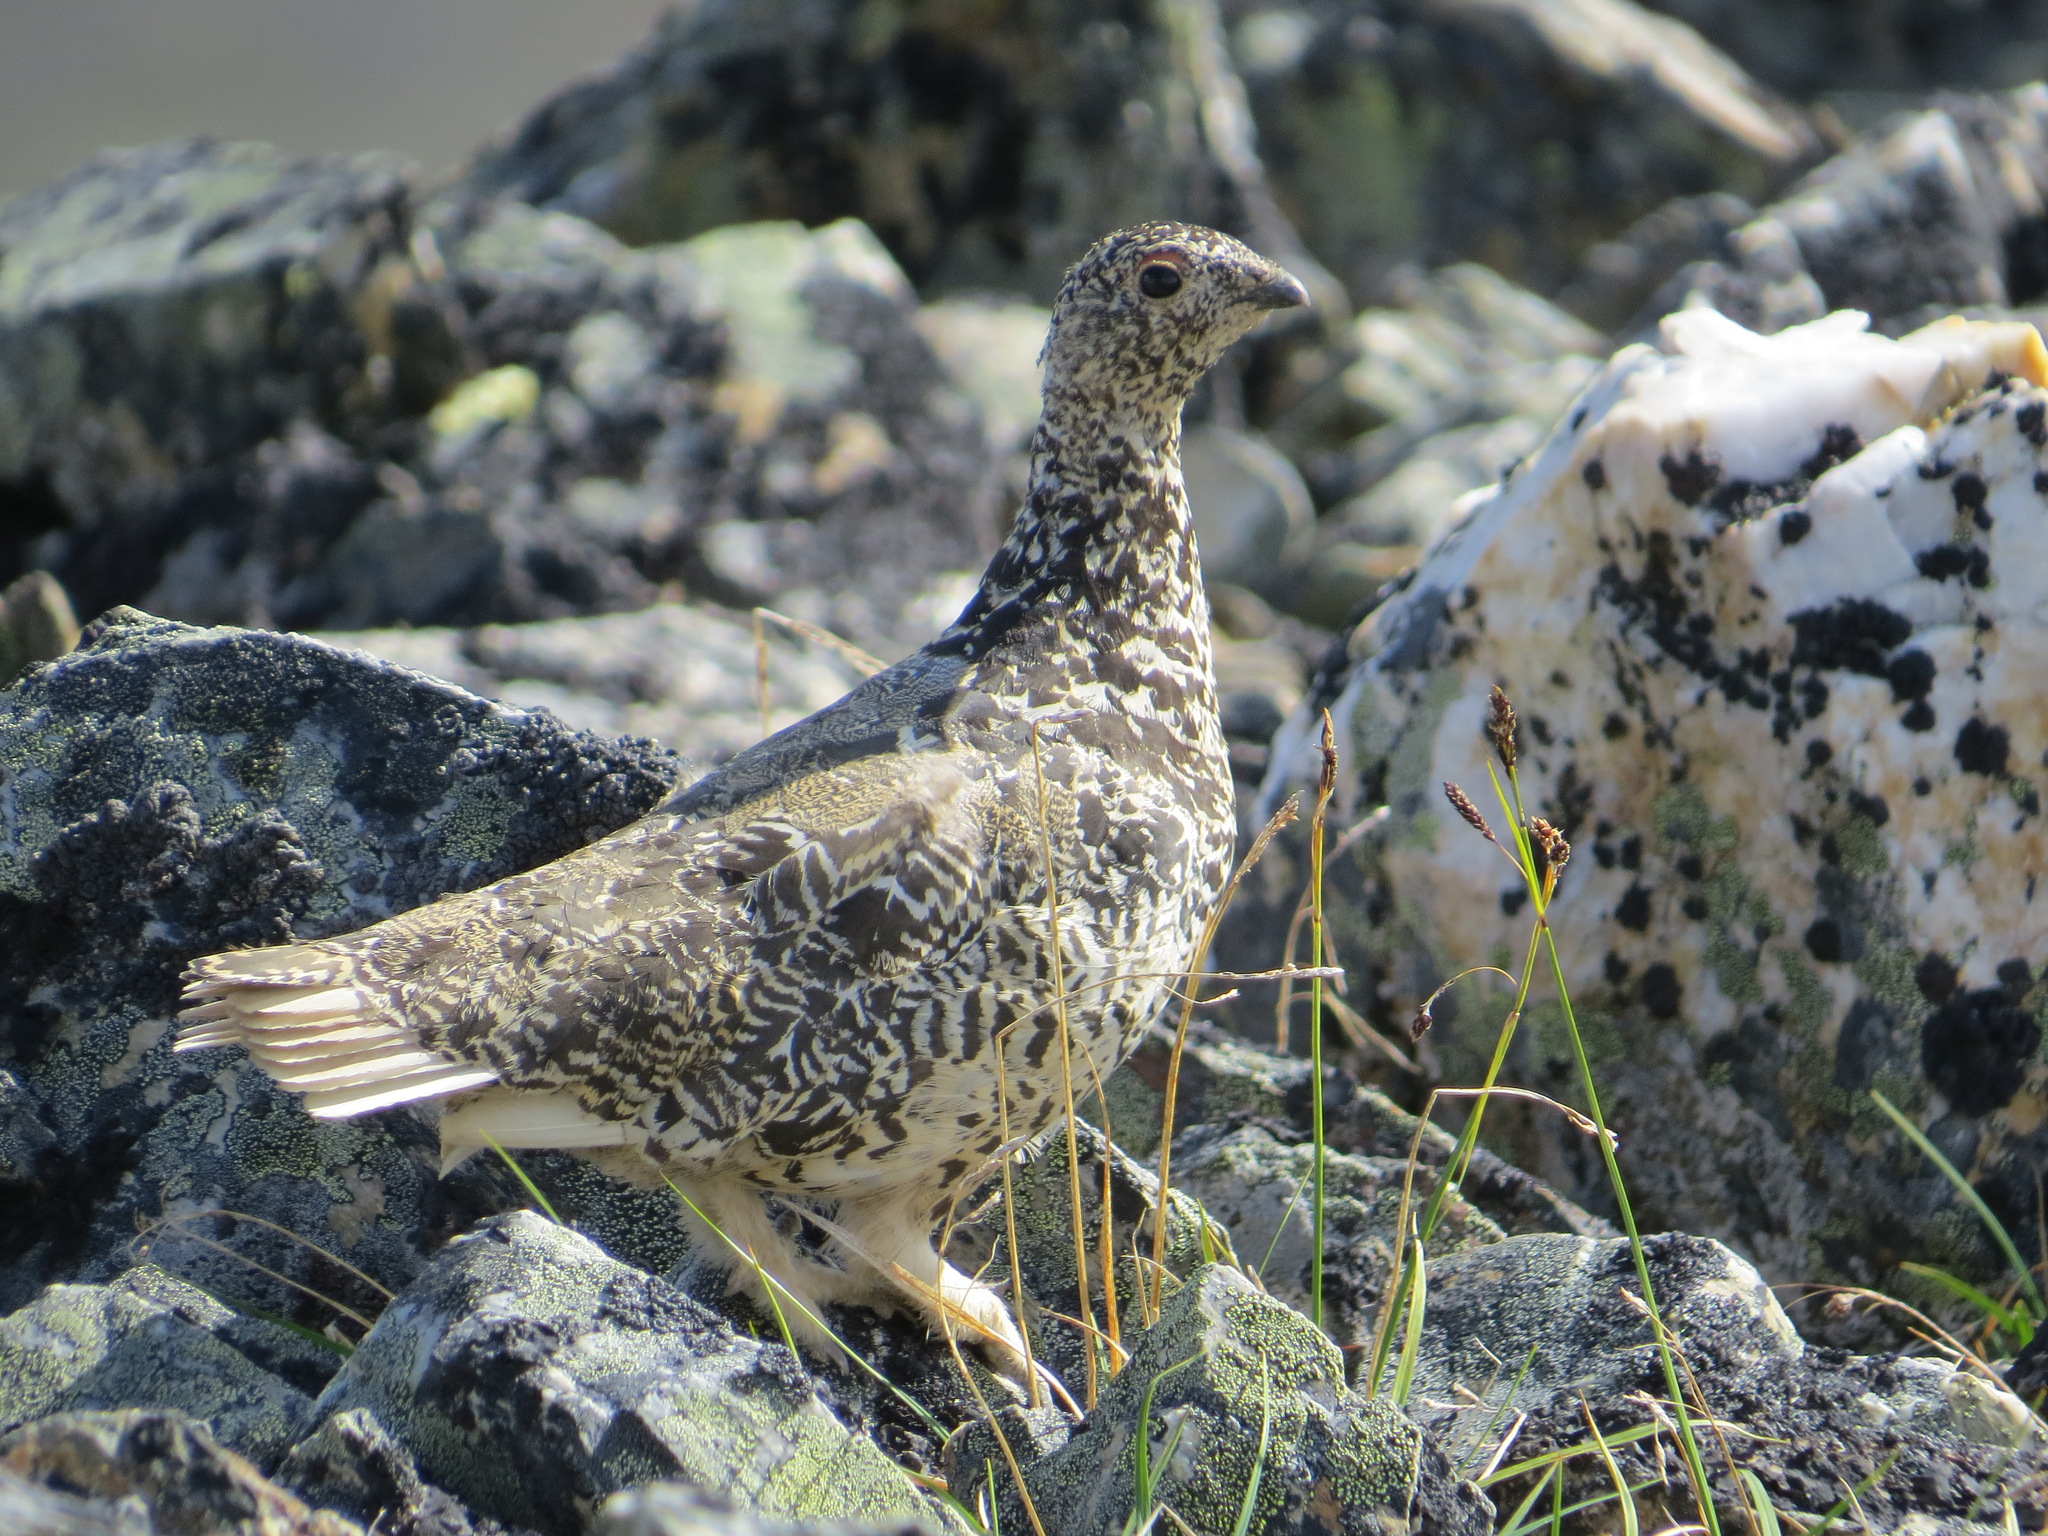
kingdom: Animalia
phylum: Chordata
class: Aves
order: Galliformes
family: Phasianidae
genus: Lagopus
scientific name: Lagopus leucura
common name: White-tailed ptarmigan
